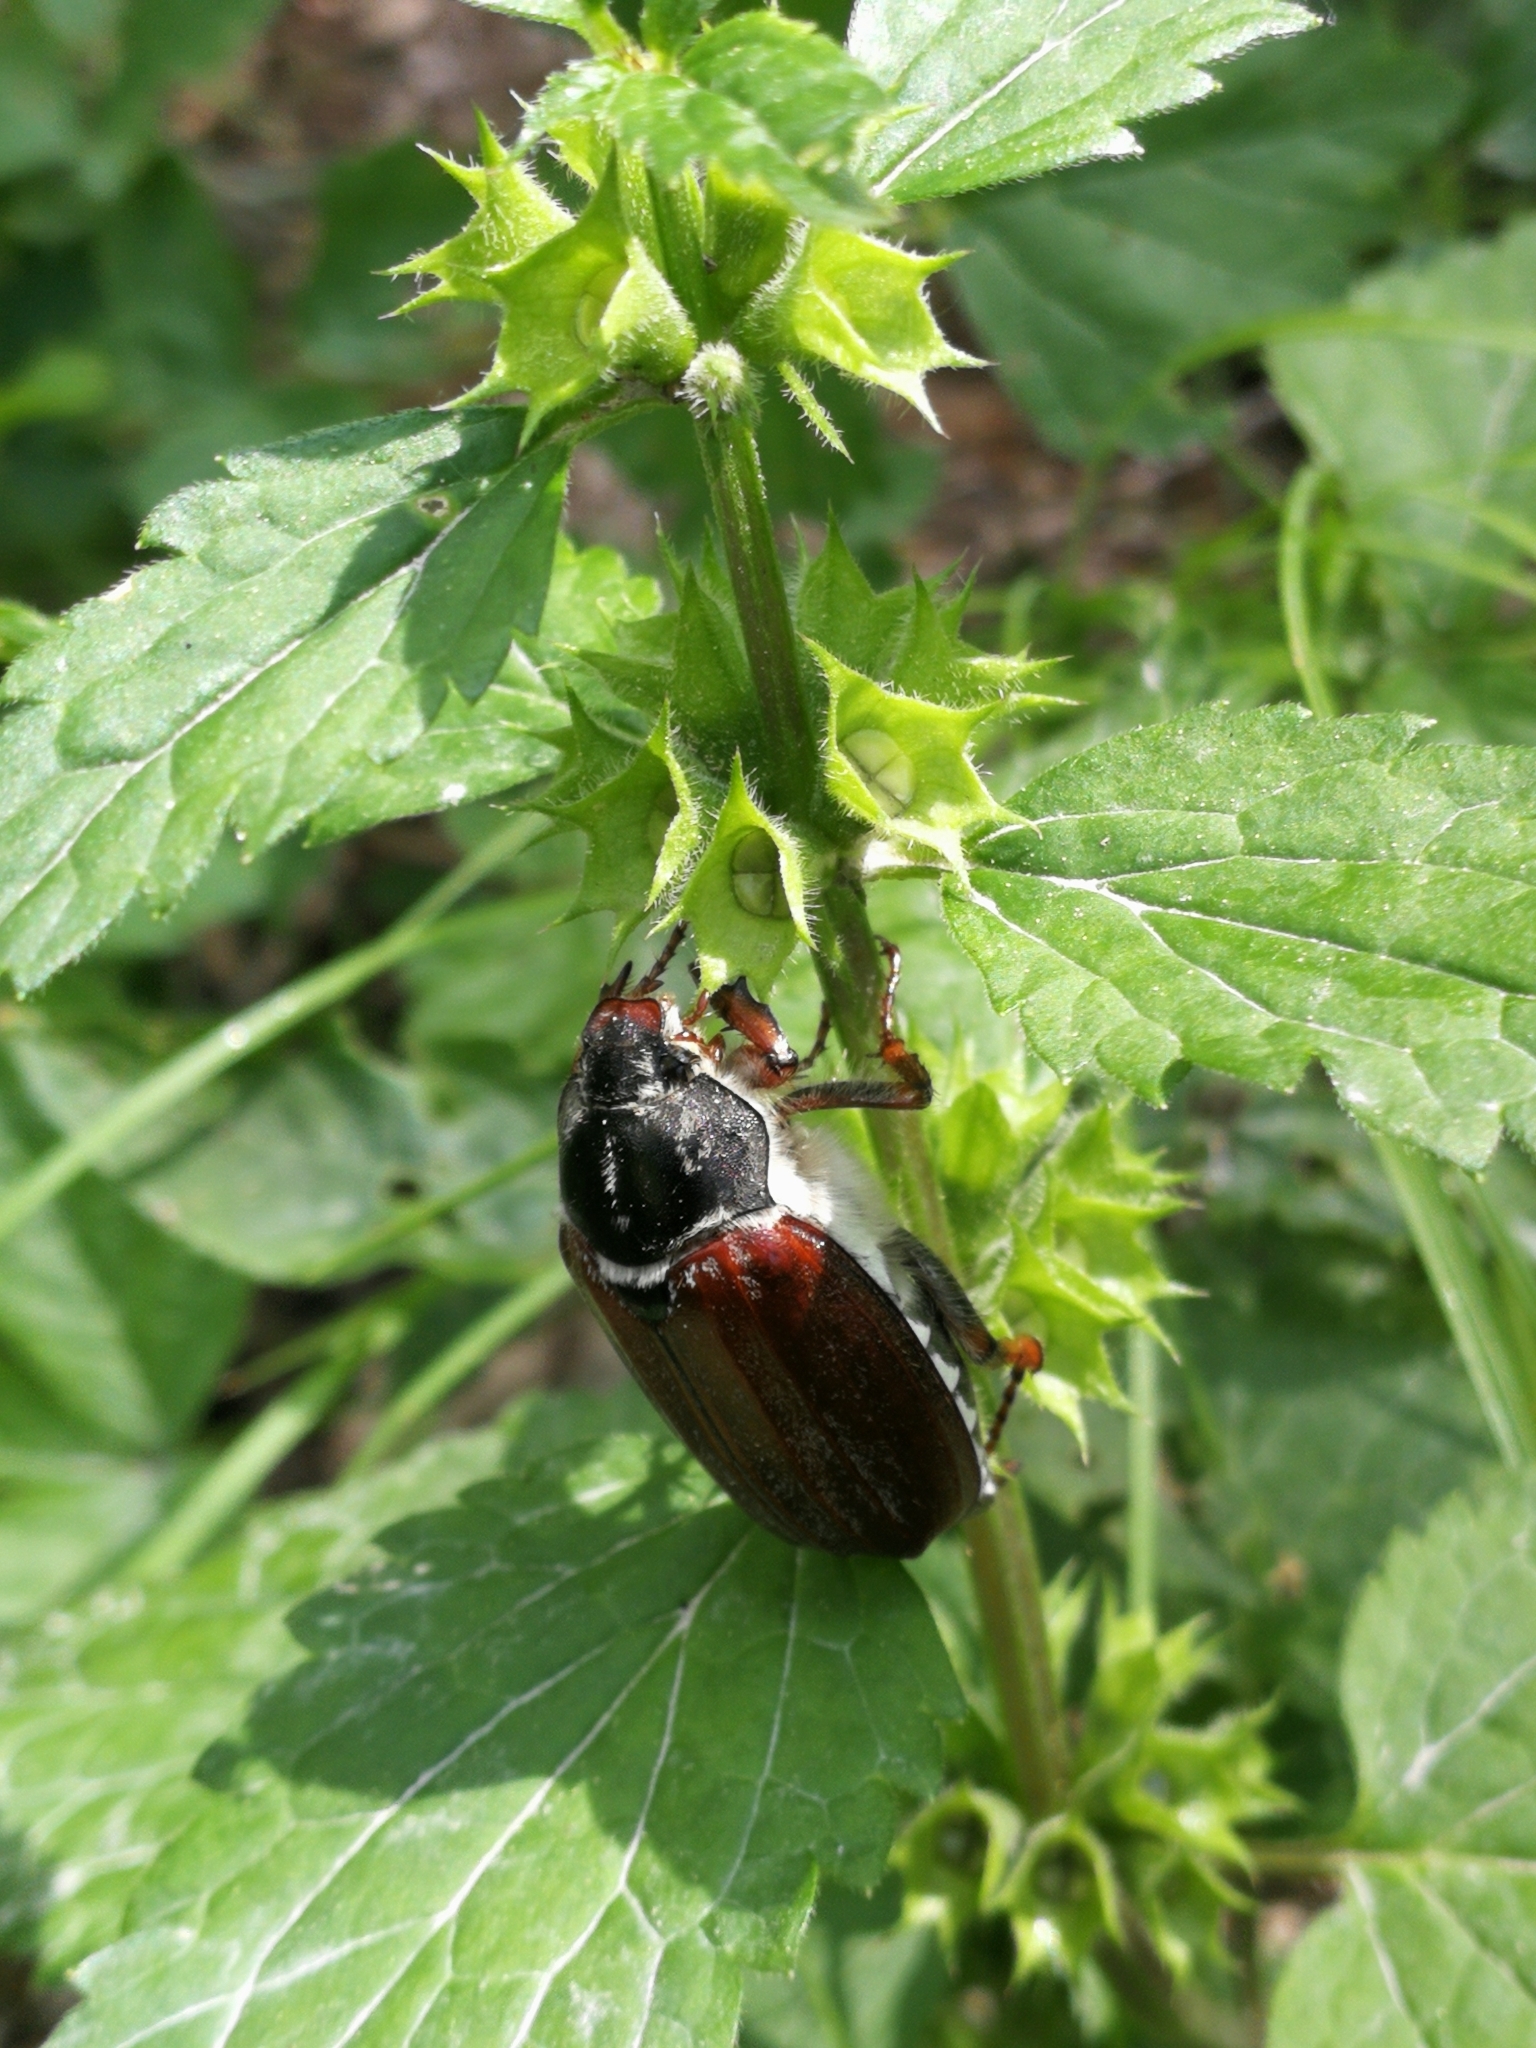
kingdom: Animalia
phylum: Arthropoda
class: Insecta
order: Coleoptera
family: Scarabaeidae
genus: Melolontha
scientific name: Melolontha melolontha
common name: Cockchafer maybeetle
